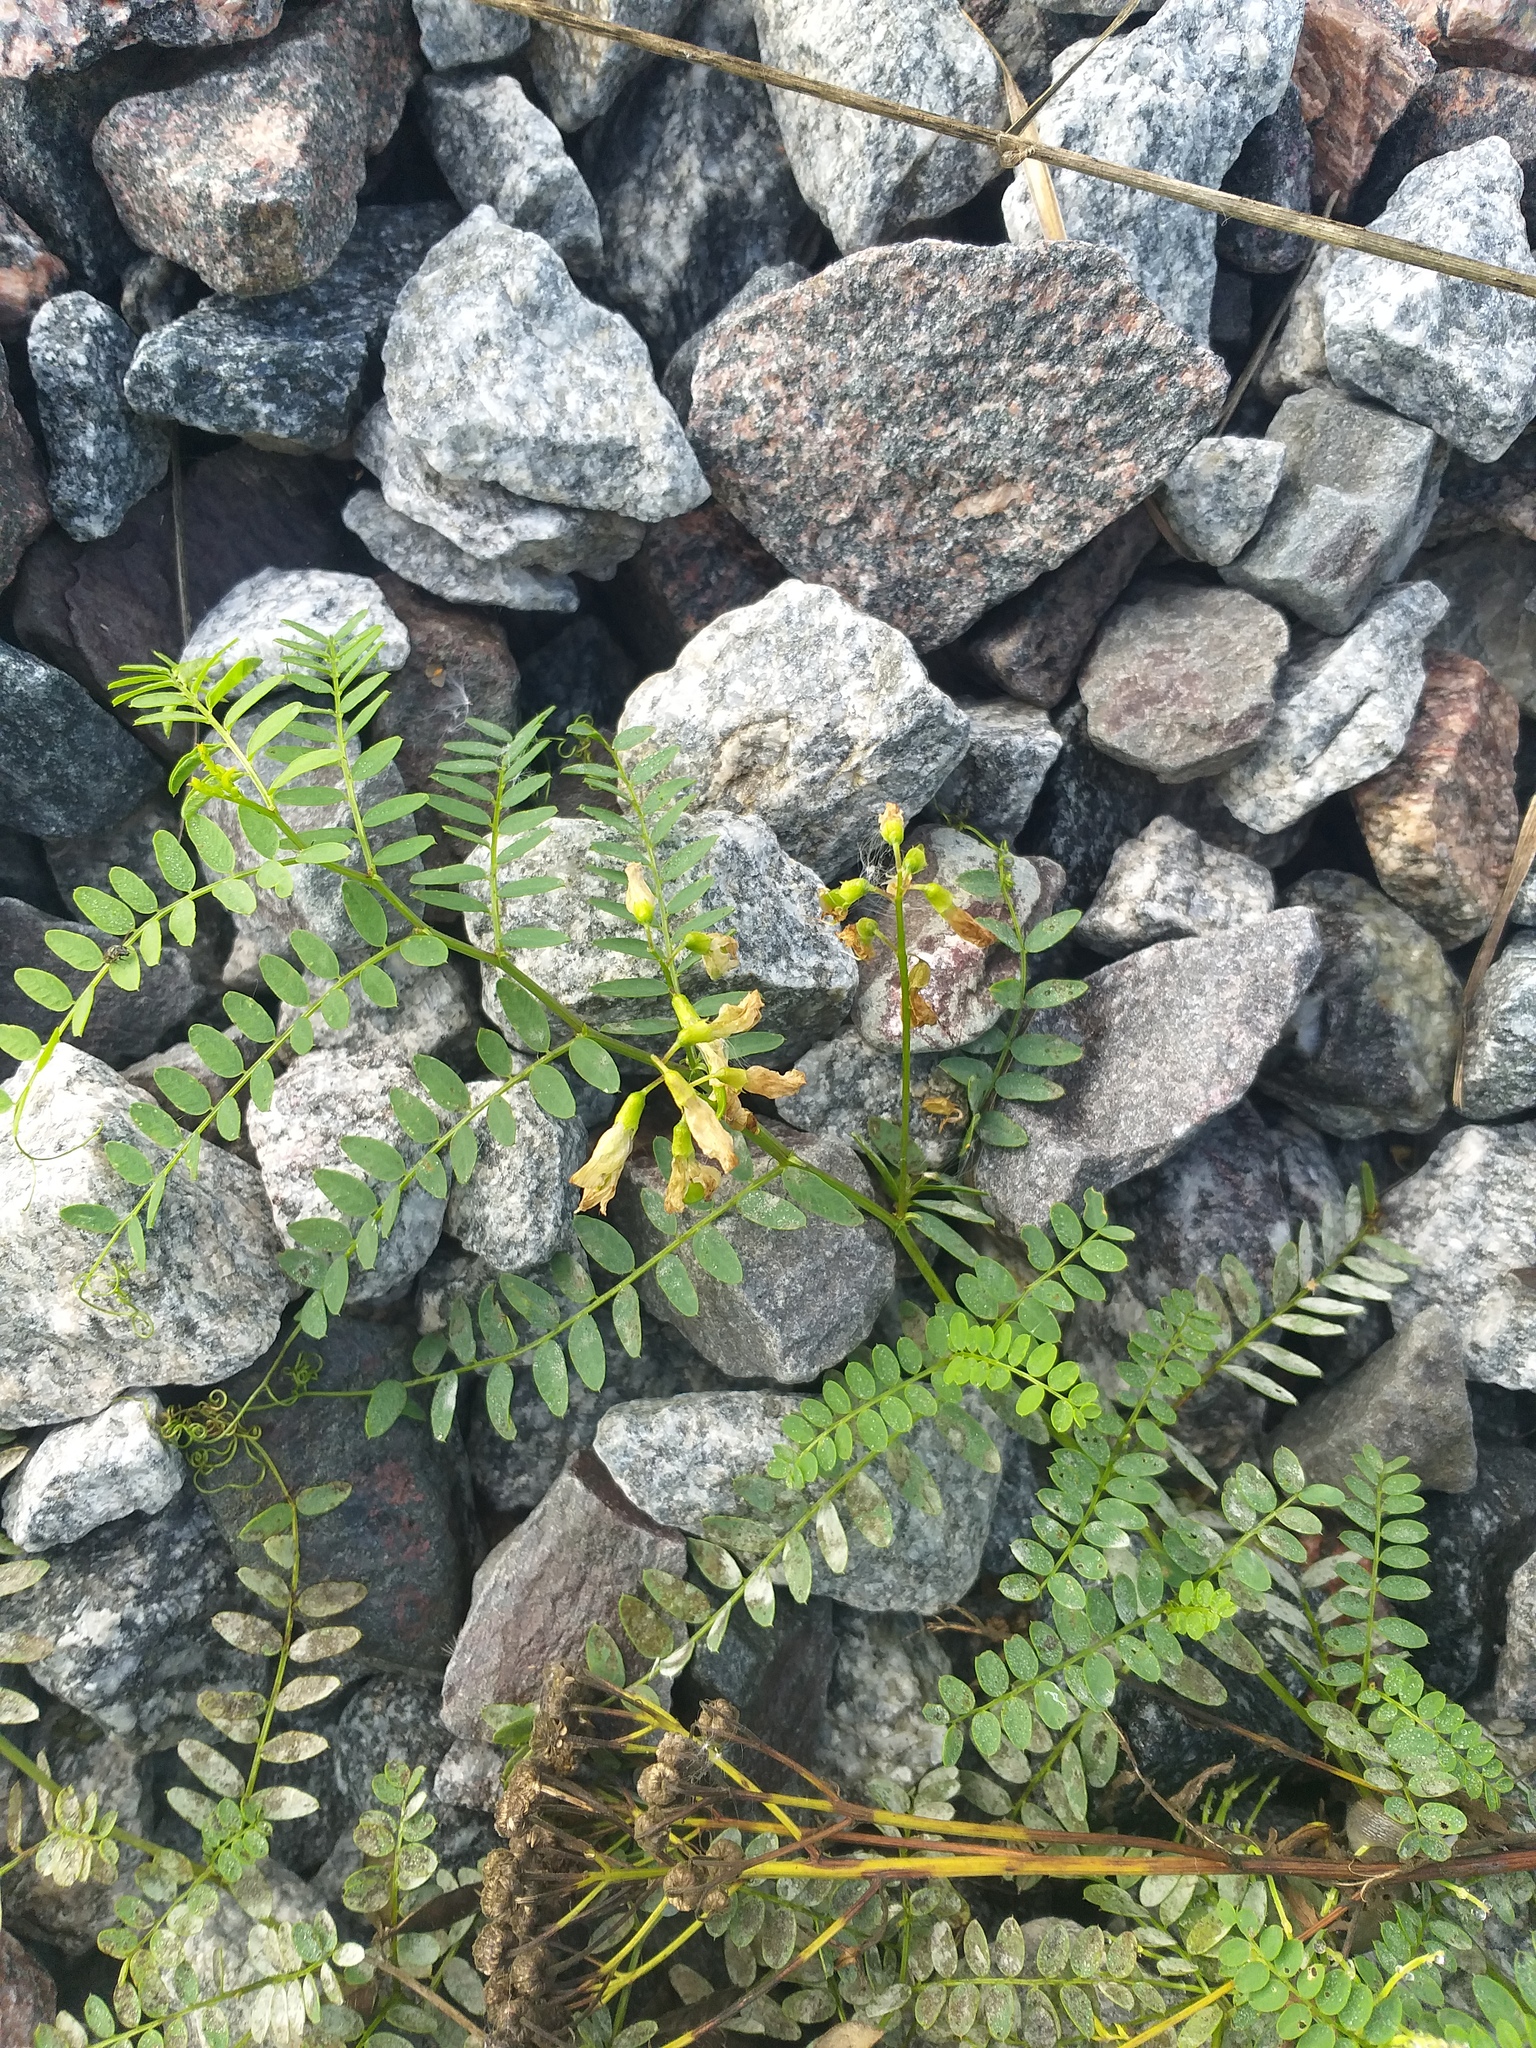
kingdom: Plantae
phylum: Tracheophyta
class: Magnoliopsida
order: Fabales
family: Fabaceae
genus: Vicia
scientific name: Vicia sylvatica
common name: Wood vetch
